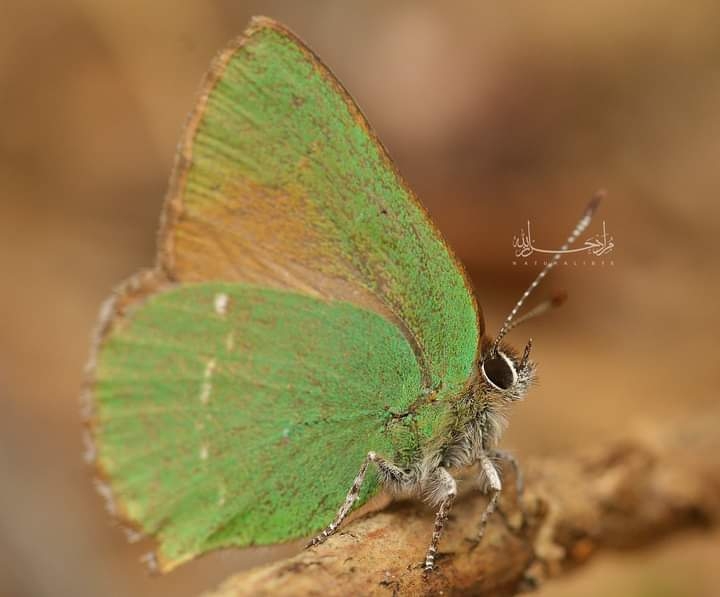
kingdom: Animalia
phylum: Arthropoda
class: Insecta
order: Lepidoptera
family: Lycaenidae
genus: Callophrys
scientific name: Callophrys rubi
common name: Green hairstreak
